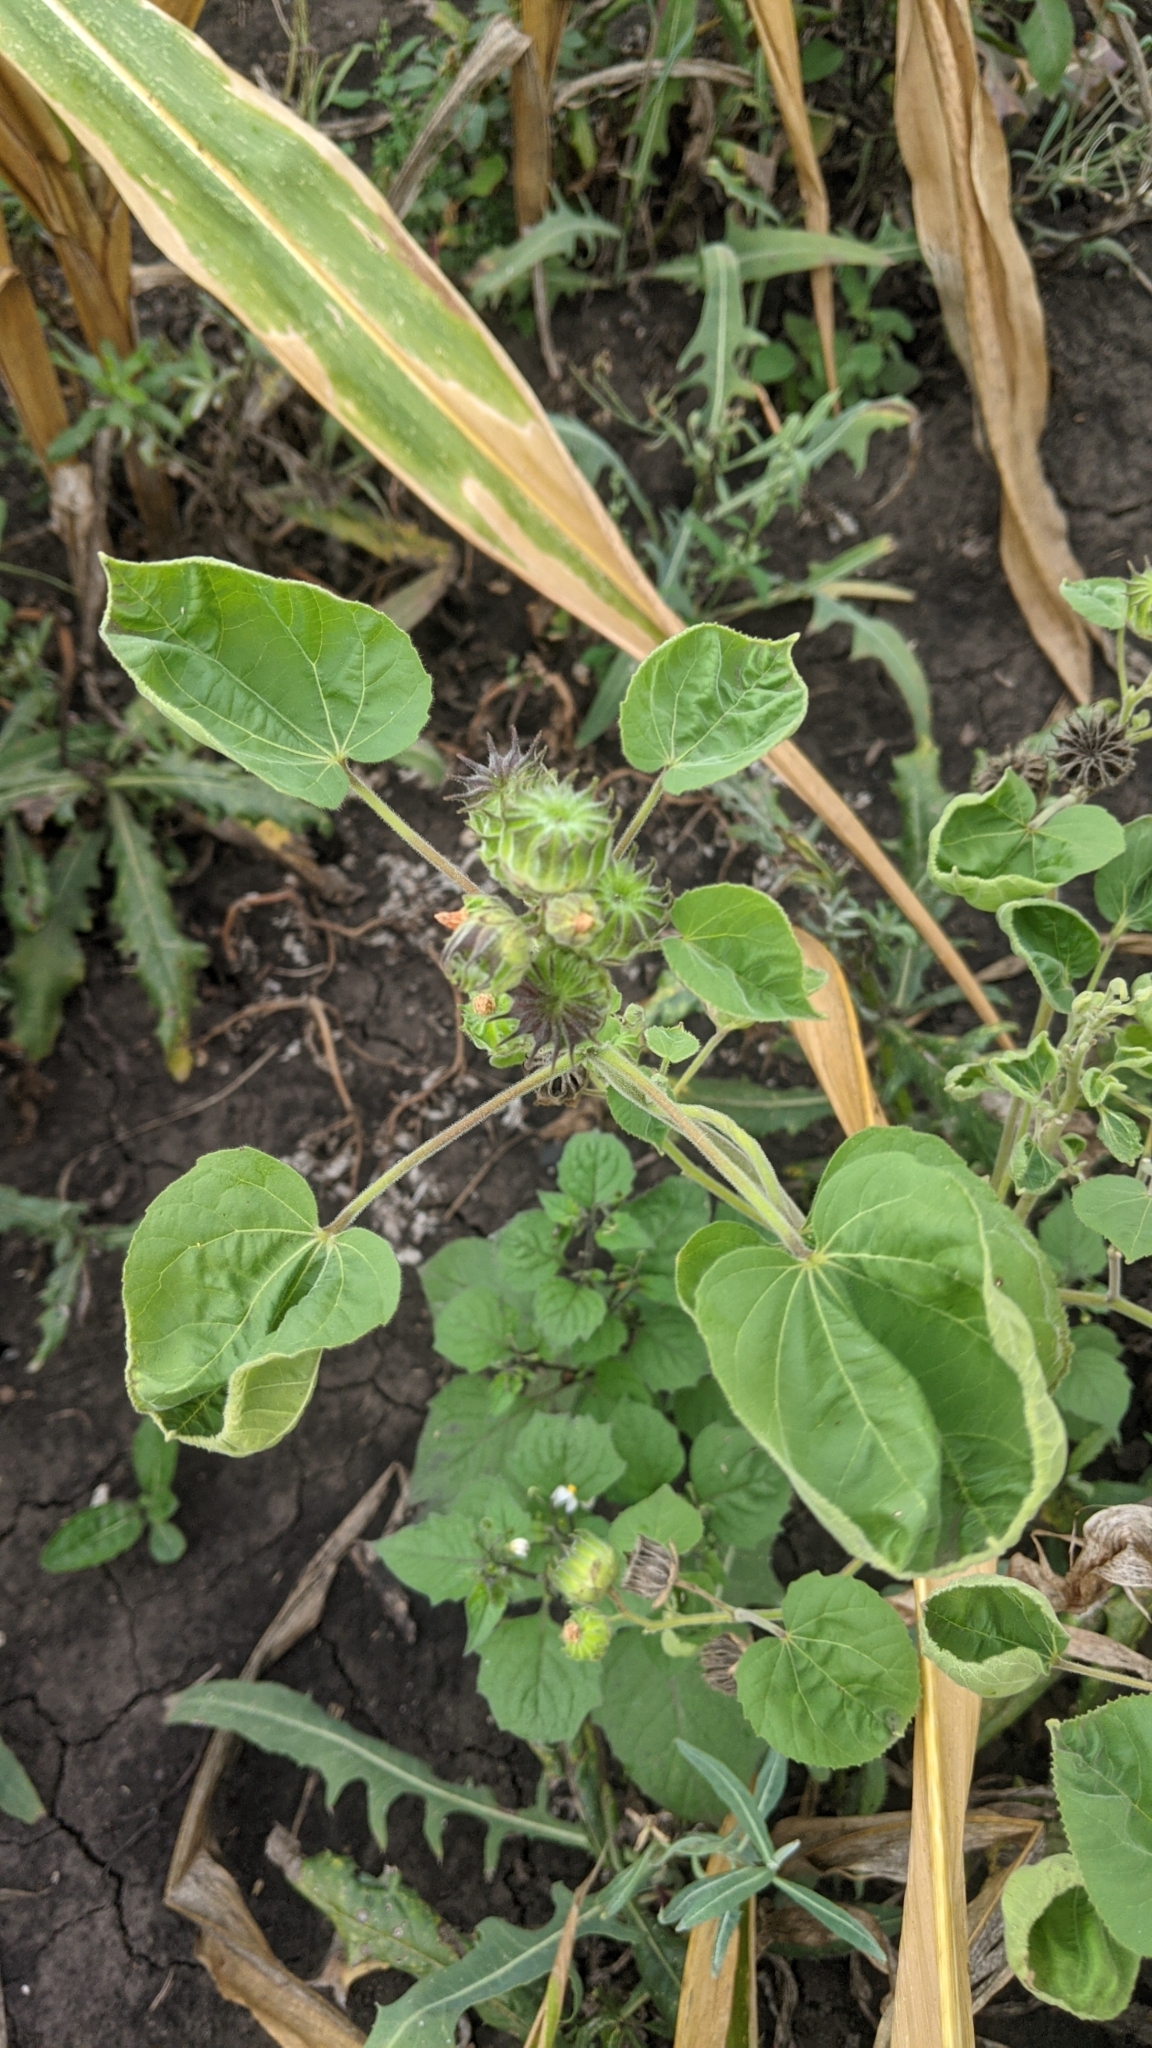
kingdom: Plantae
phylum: Tracheophyta
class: Magnoliopsida
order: Malvales
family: Malvaceae
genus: Abutilon
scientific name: Abutilon theophrasti
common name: Velvetleaf
